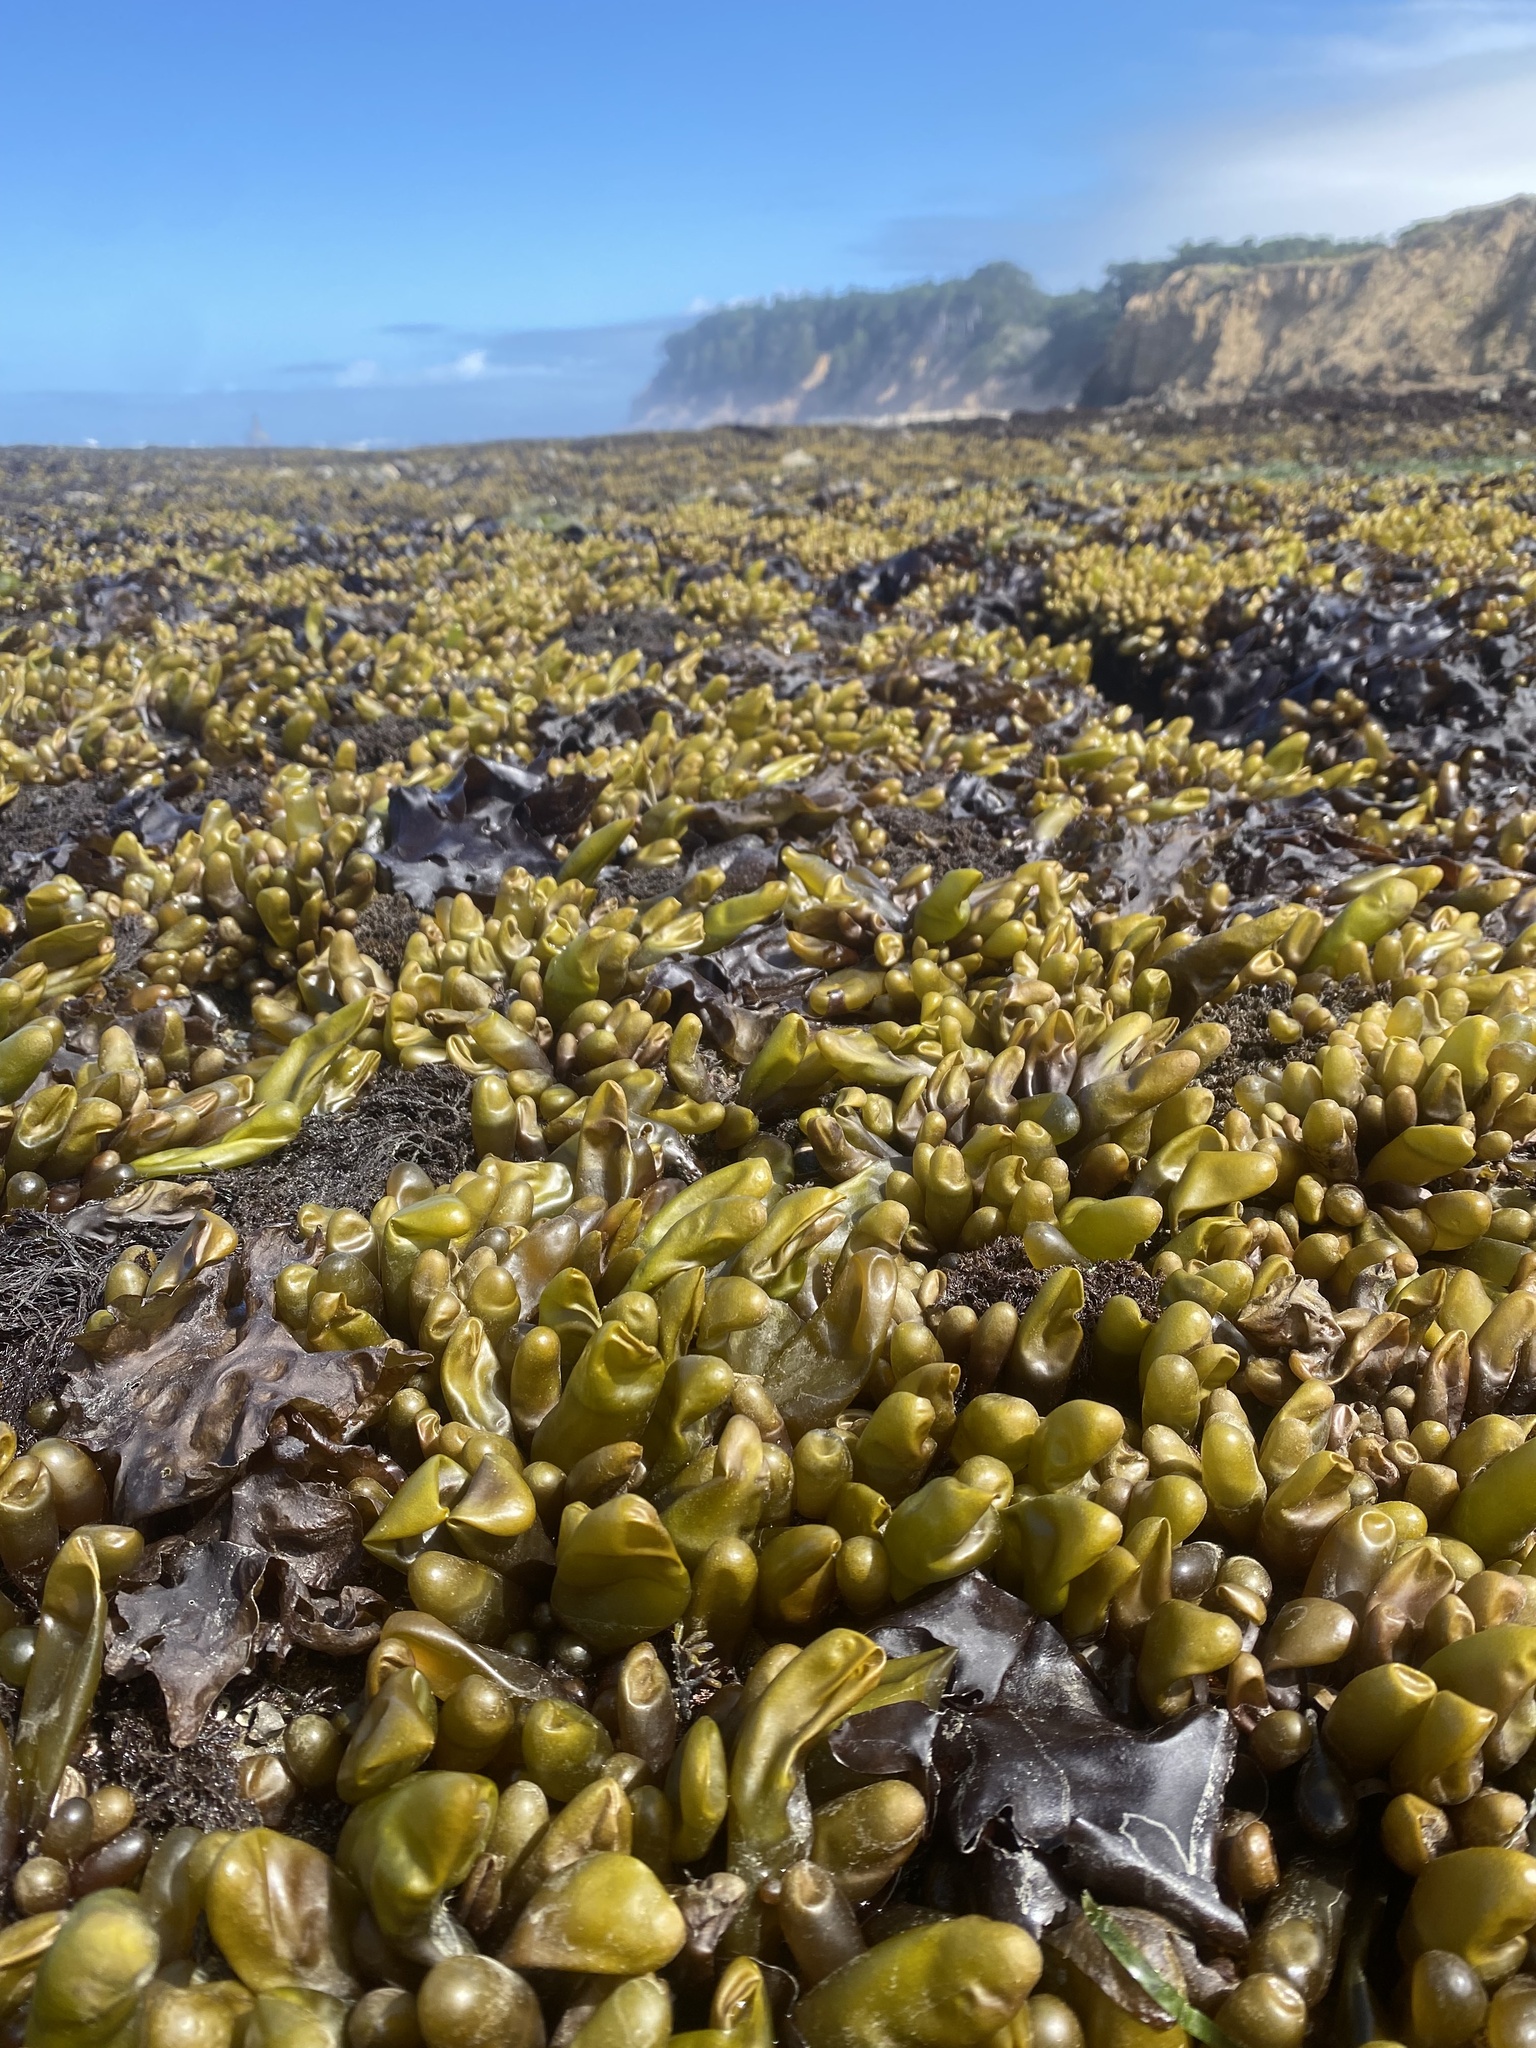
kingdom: Plantae
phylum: Rhodophyta
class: Florideophyceae
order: Palmariales
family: Palmariaceae
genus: Halosaccion
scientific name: Halosaccion glandiforme
